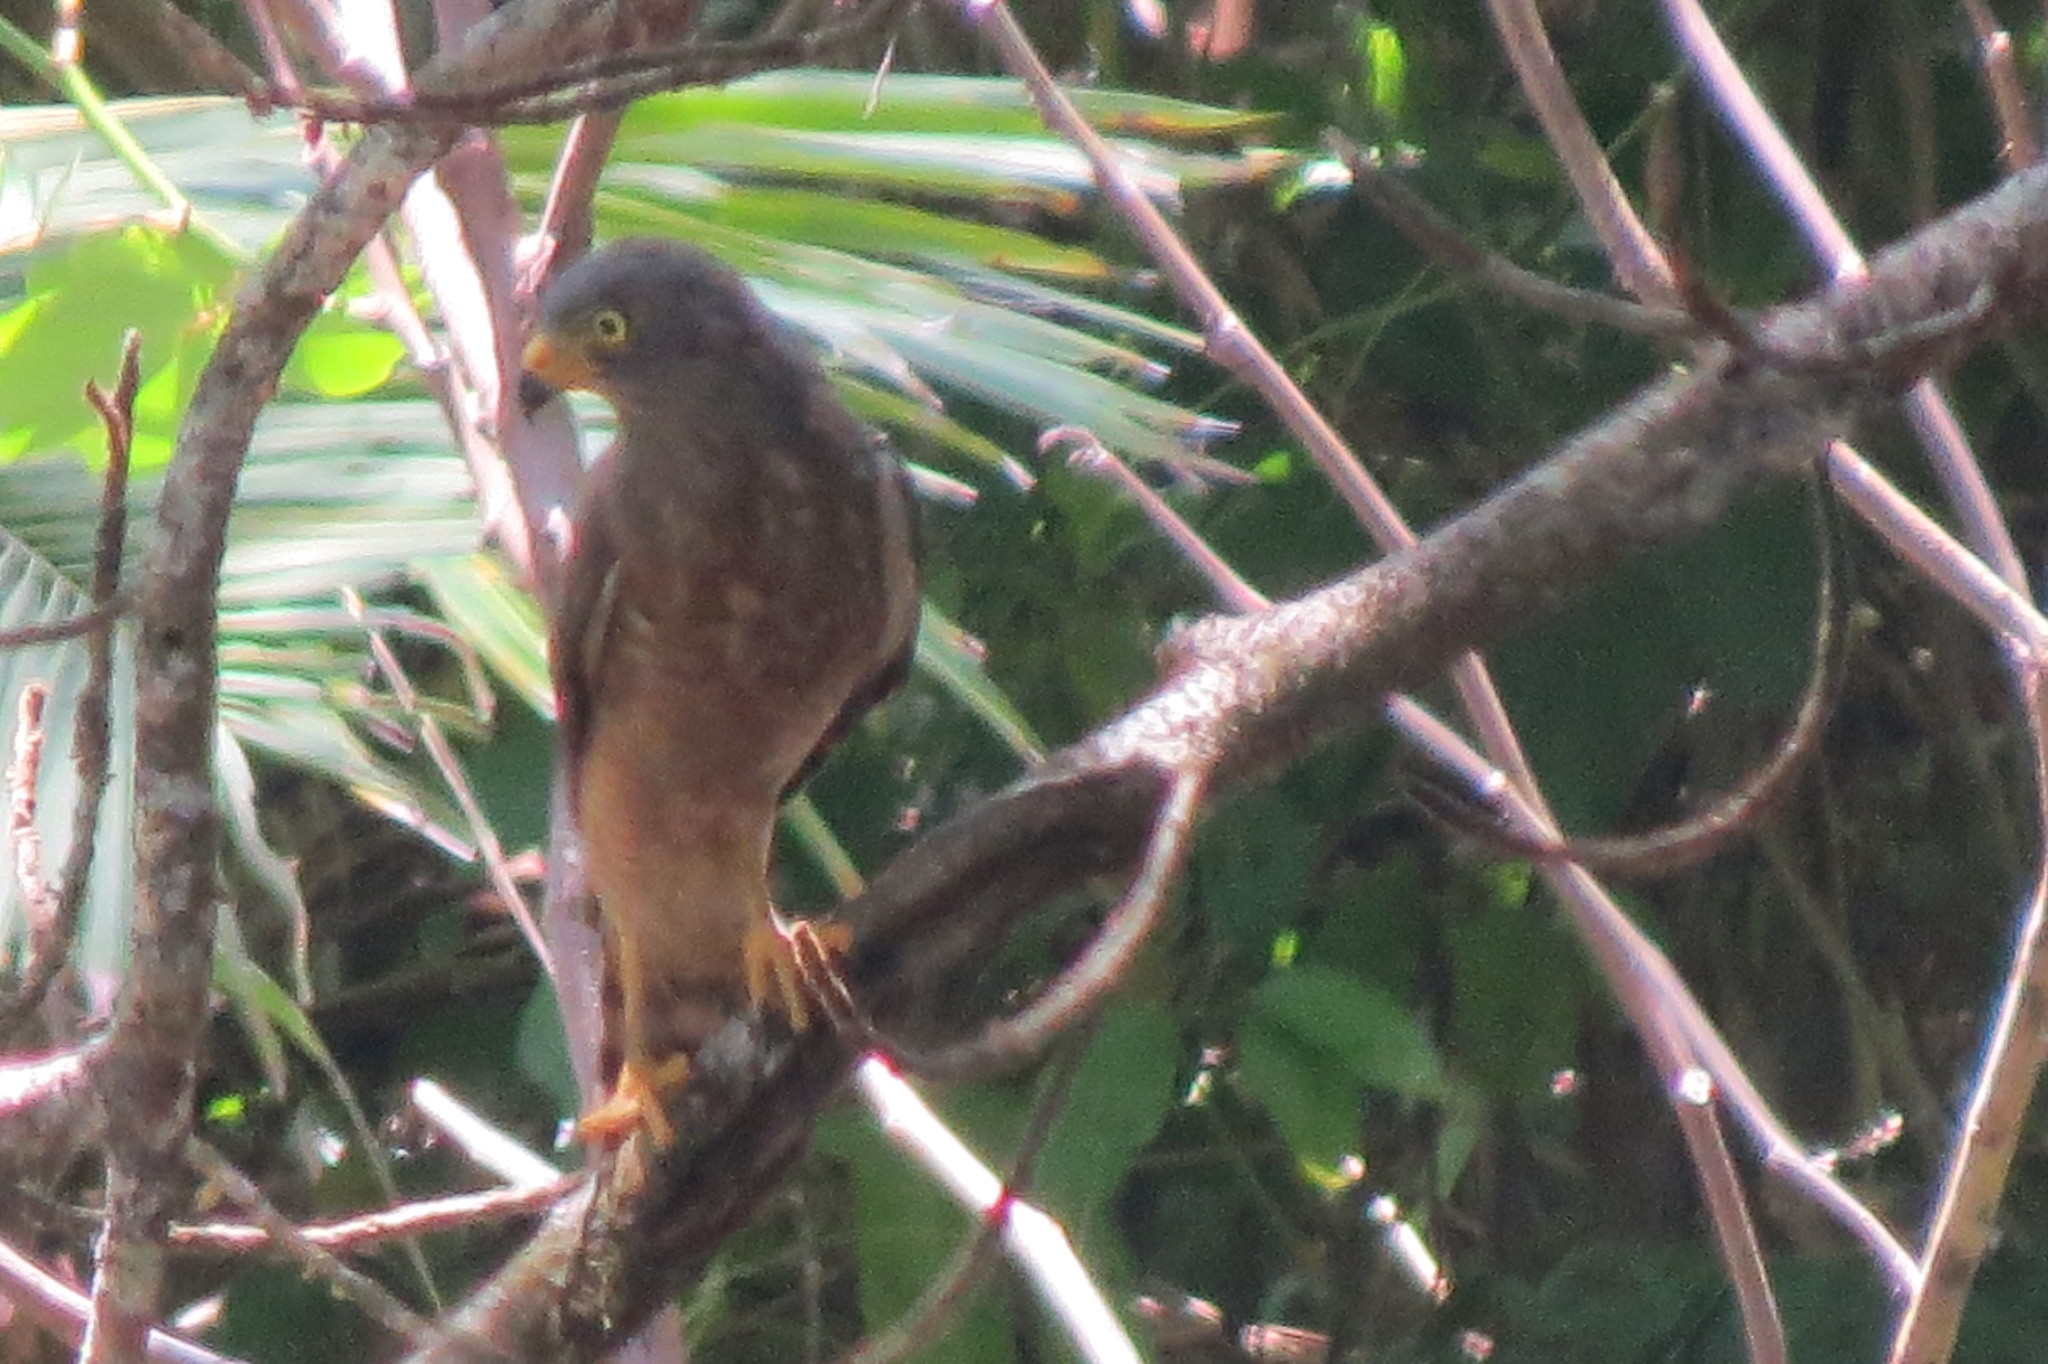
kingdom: Animalia
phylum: Chordata
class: Aves
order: Accipitriformes
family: Accipitridae
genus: Rupornis
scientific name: Rupornis magnirostris
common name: Roadside hawk
